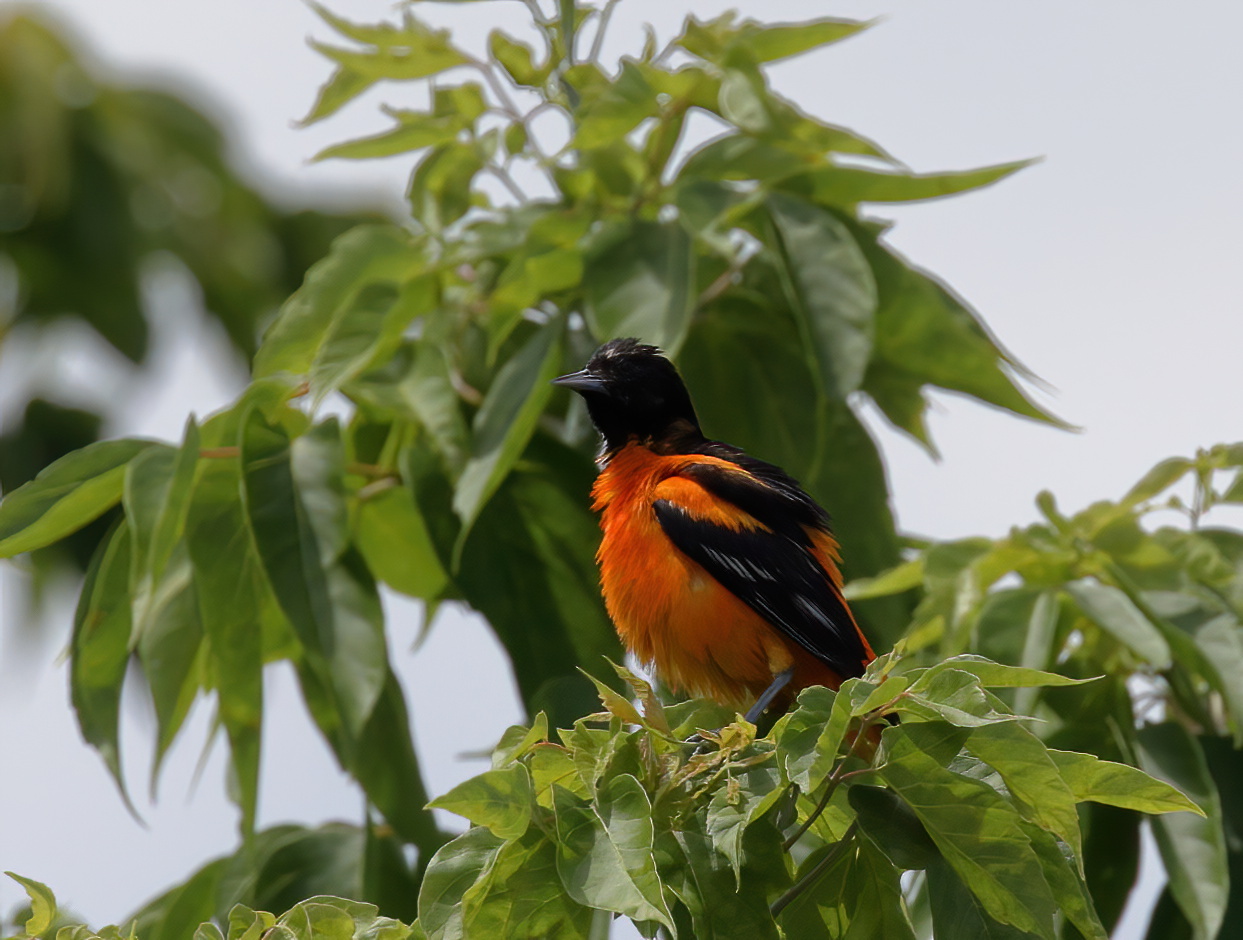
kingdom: Animalia
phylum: Chordata
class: Aves
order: Passeriformes
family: Icteridae
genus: Icterus
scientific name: Icterus galbula
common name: Baltimore oriole
